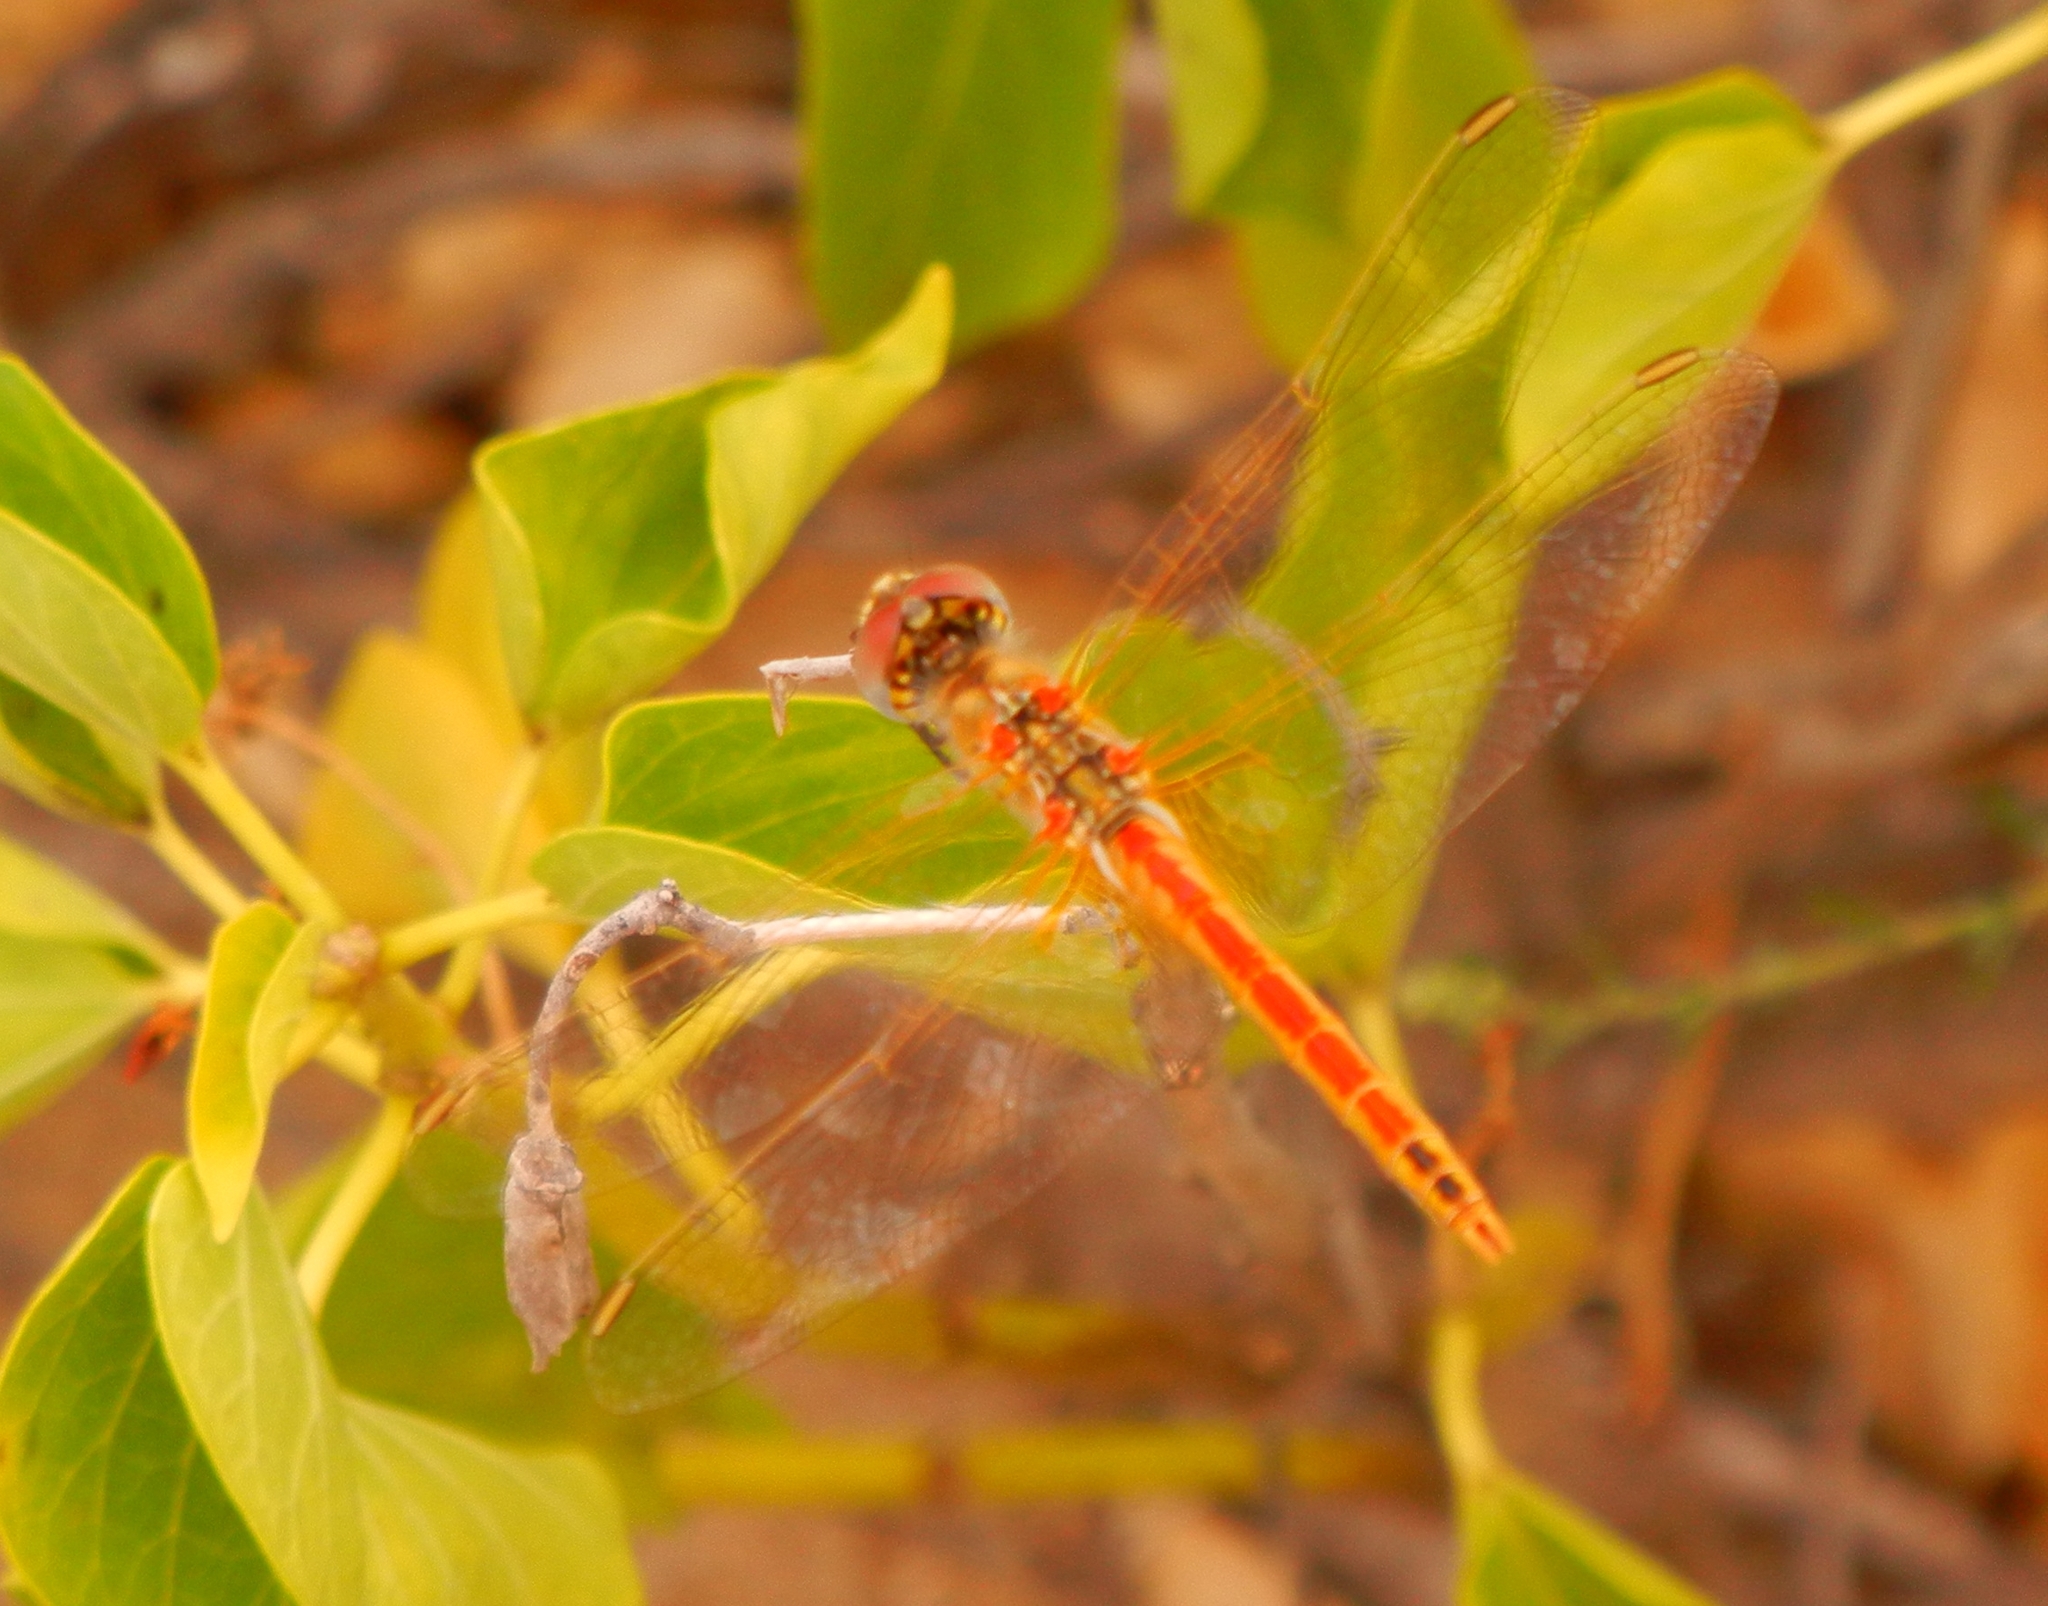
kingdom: Animalia
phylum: Arthropoda
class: Insecta
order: Odonata
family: Libellulidae
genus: Sympetrum
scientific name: Sympetrum fonscolombii
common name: Red-veined darter
